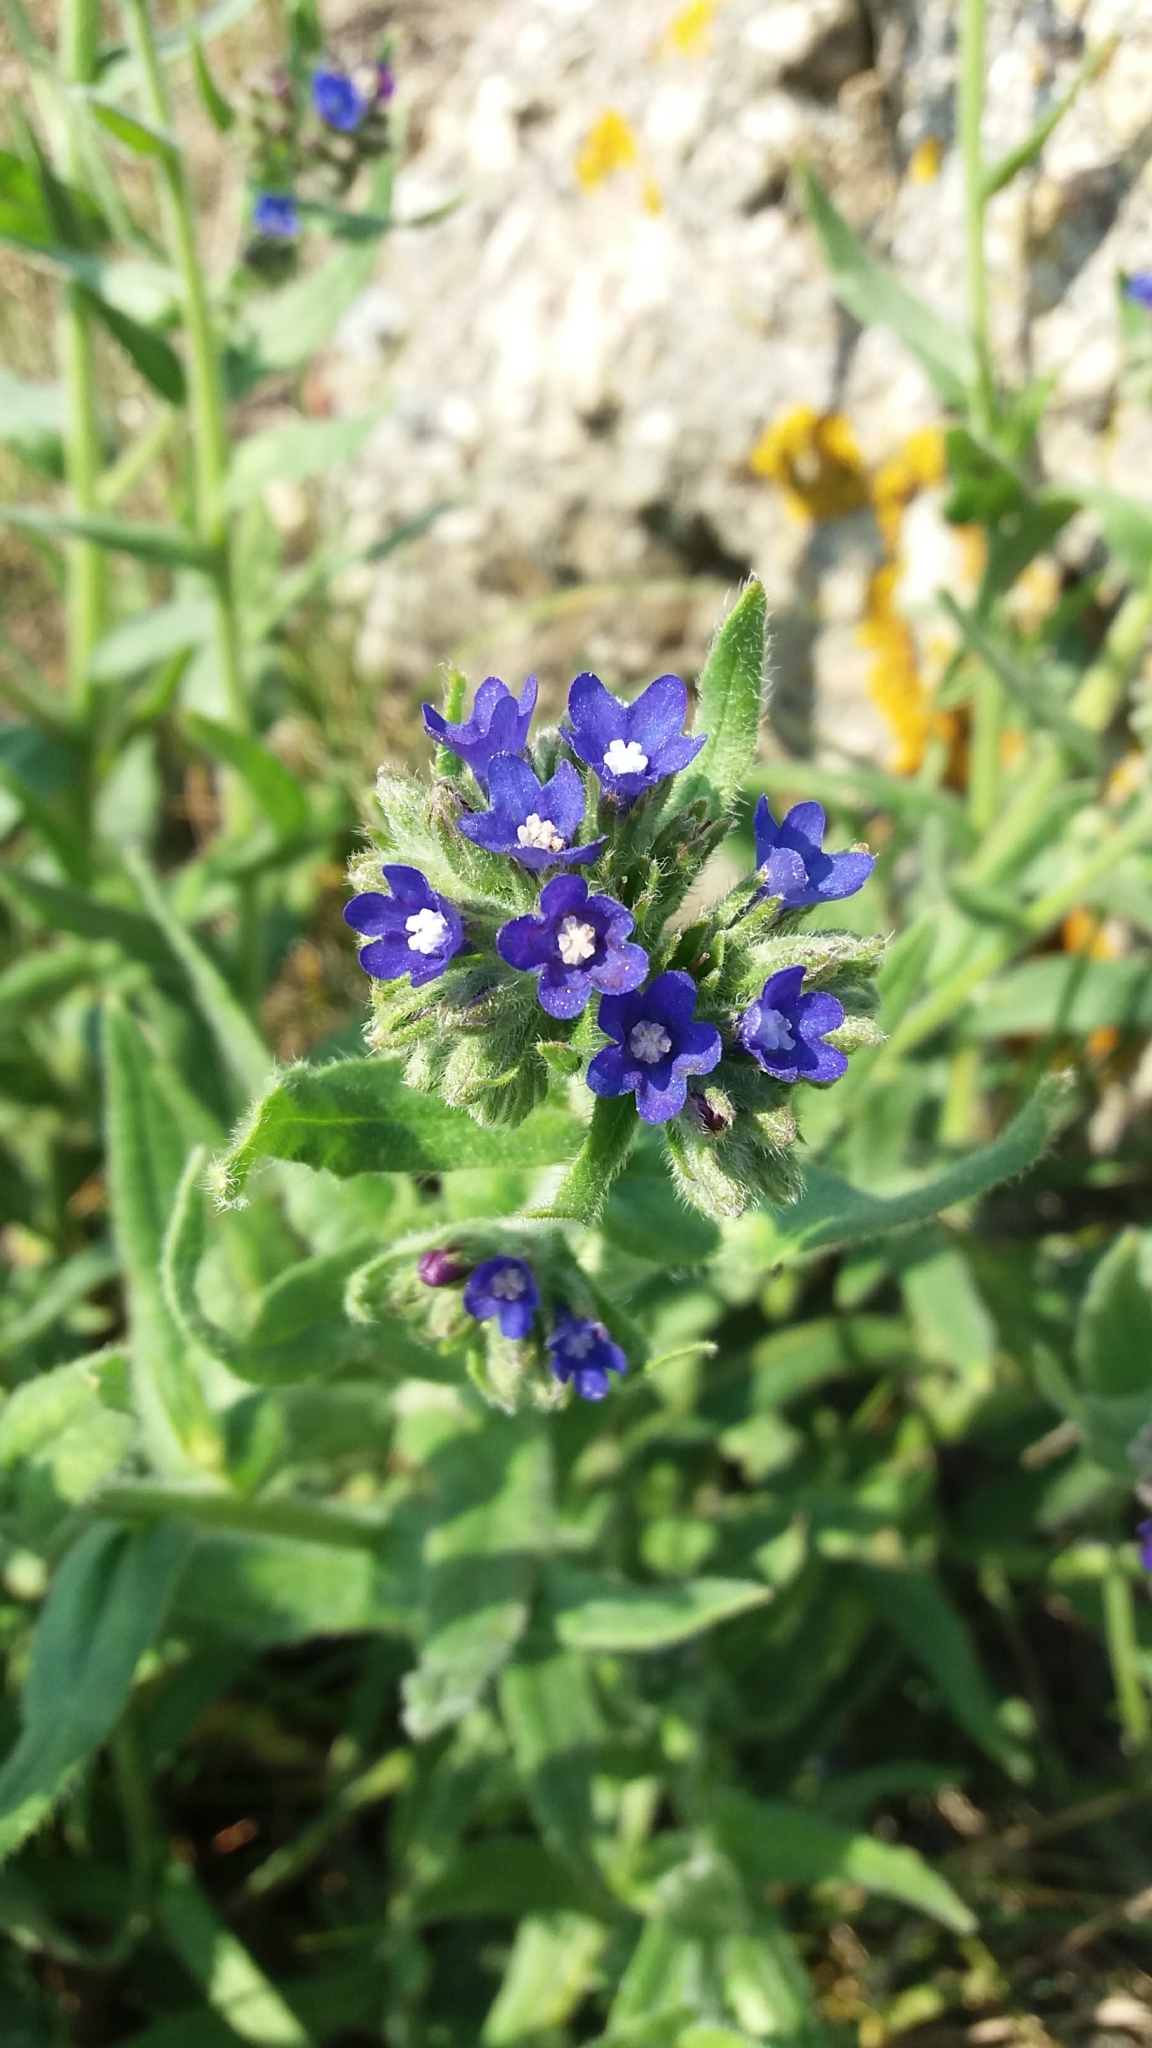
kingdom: Plantae
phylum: Tracheophyta
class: Magnoliopsida
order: Boraginales
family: Boraginaceae
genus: Anchusa
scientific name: Anchusa officinalis
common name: Alkanet
